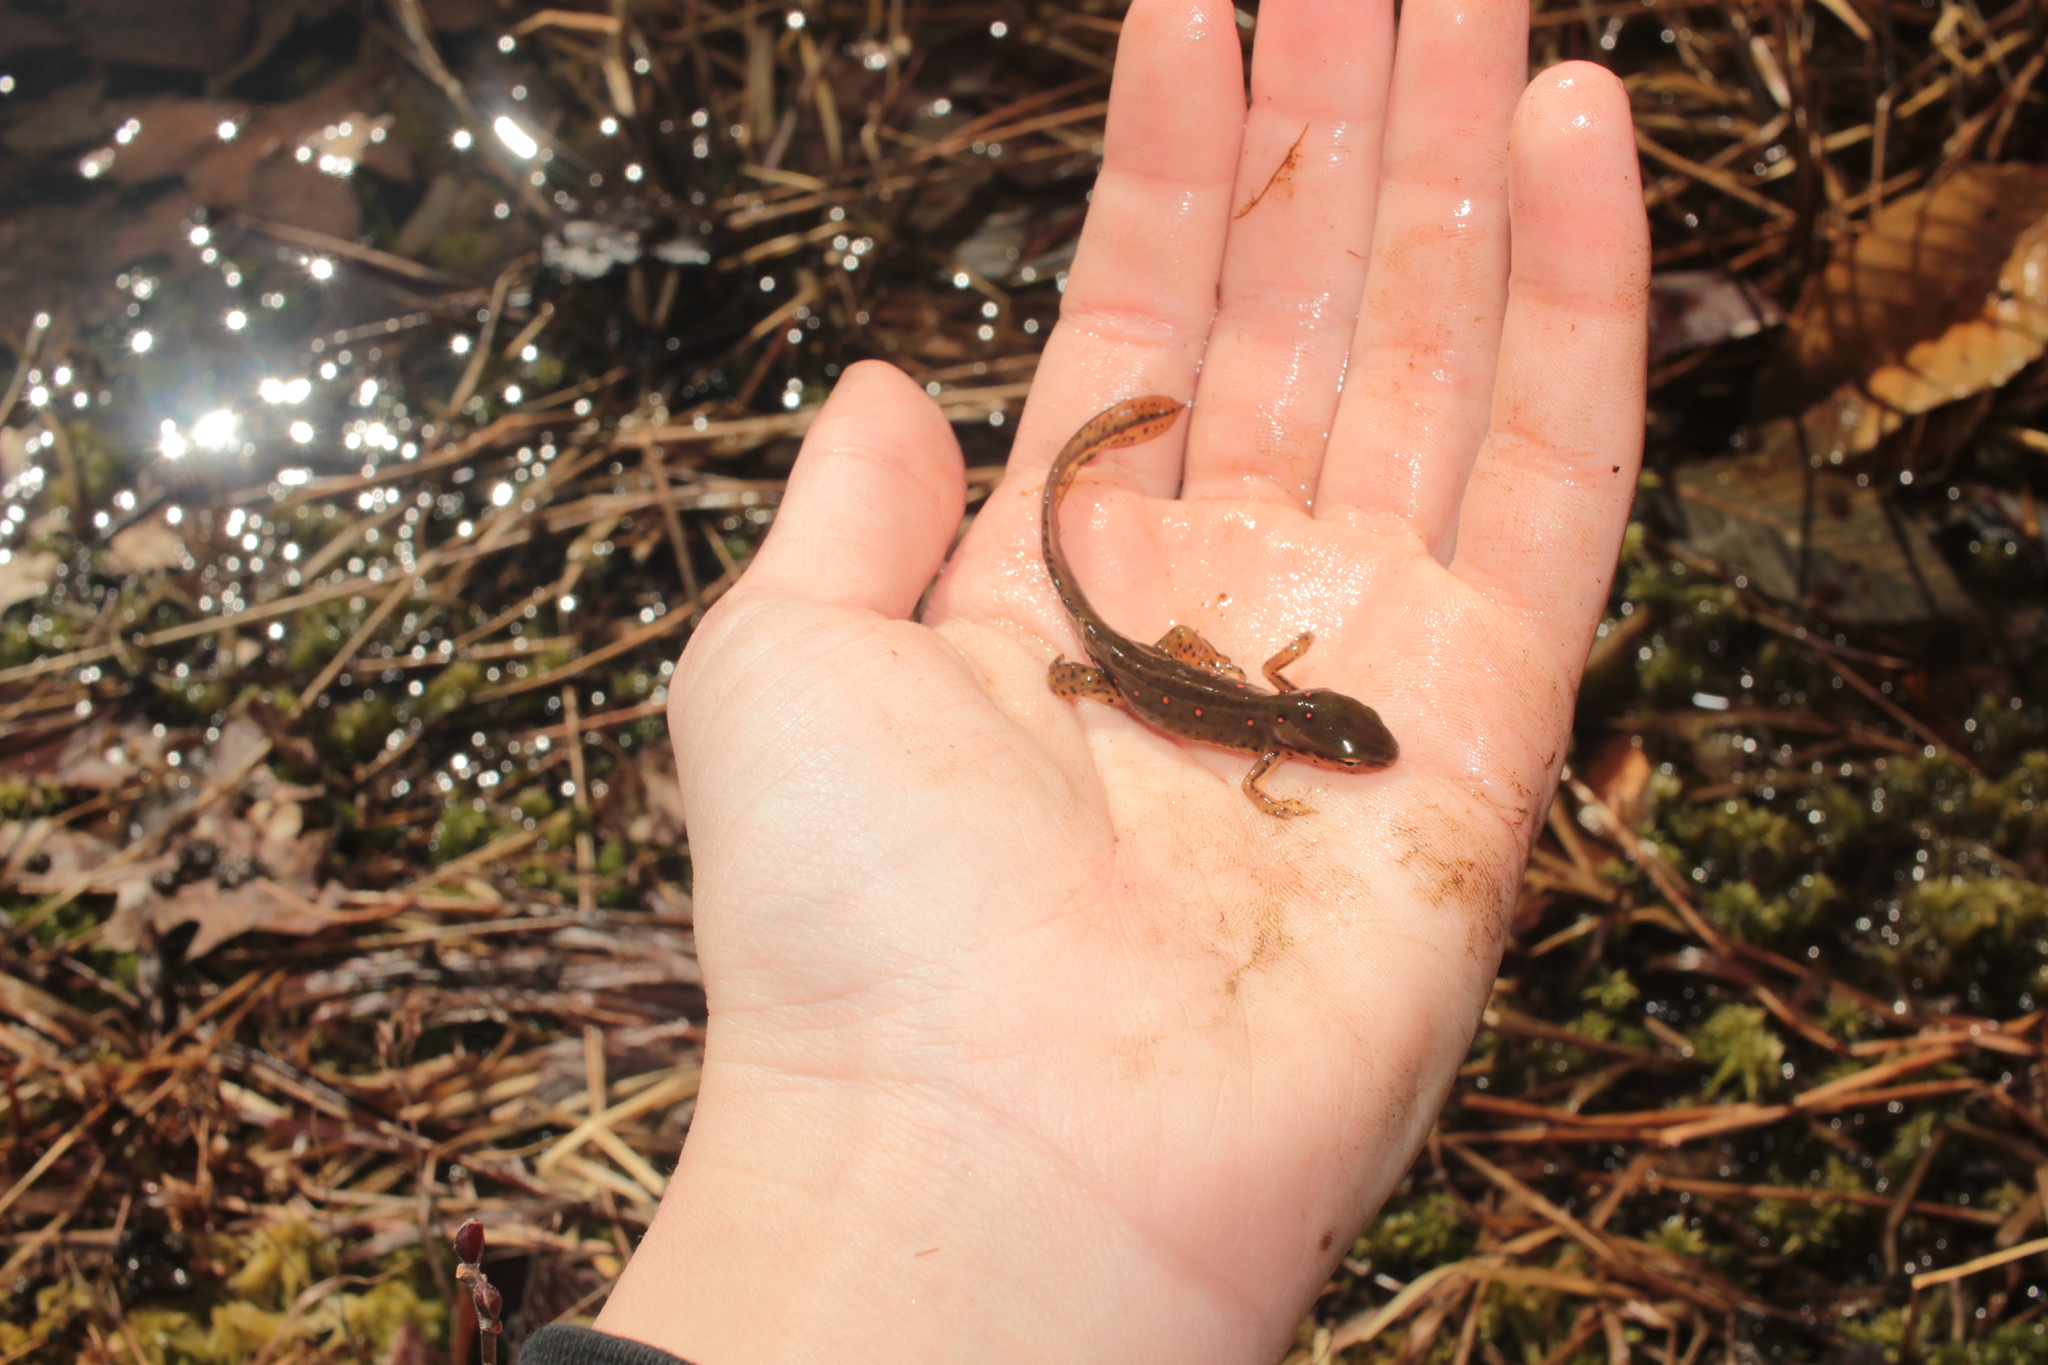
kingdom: Animalia
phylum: Chordata
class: Amphibia
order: Caudata
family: Salamandridae
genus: Notophthalmus
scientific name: Notophthalmus viridescens
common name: Eastern newt
